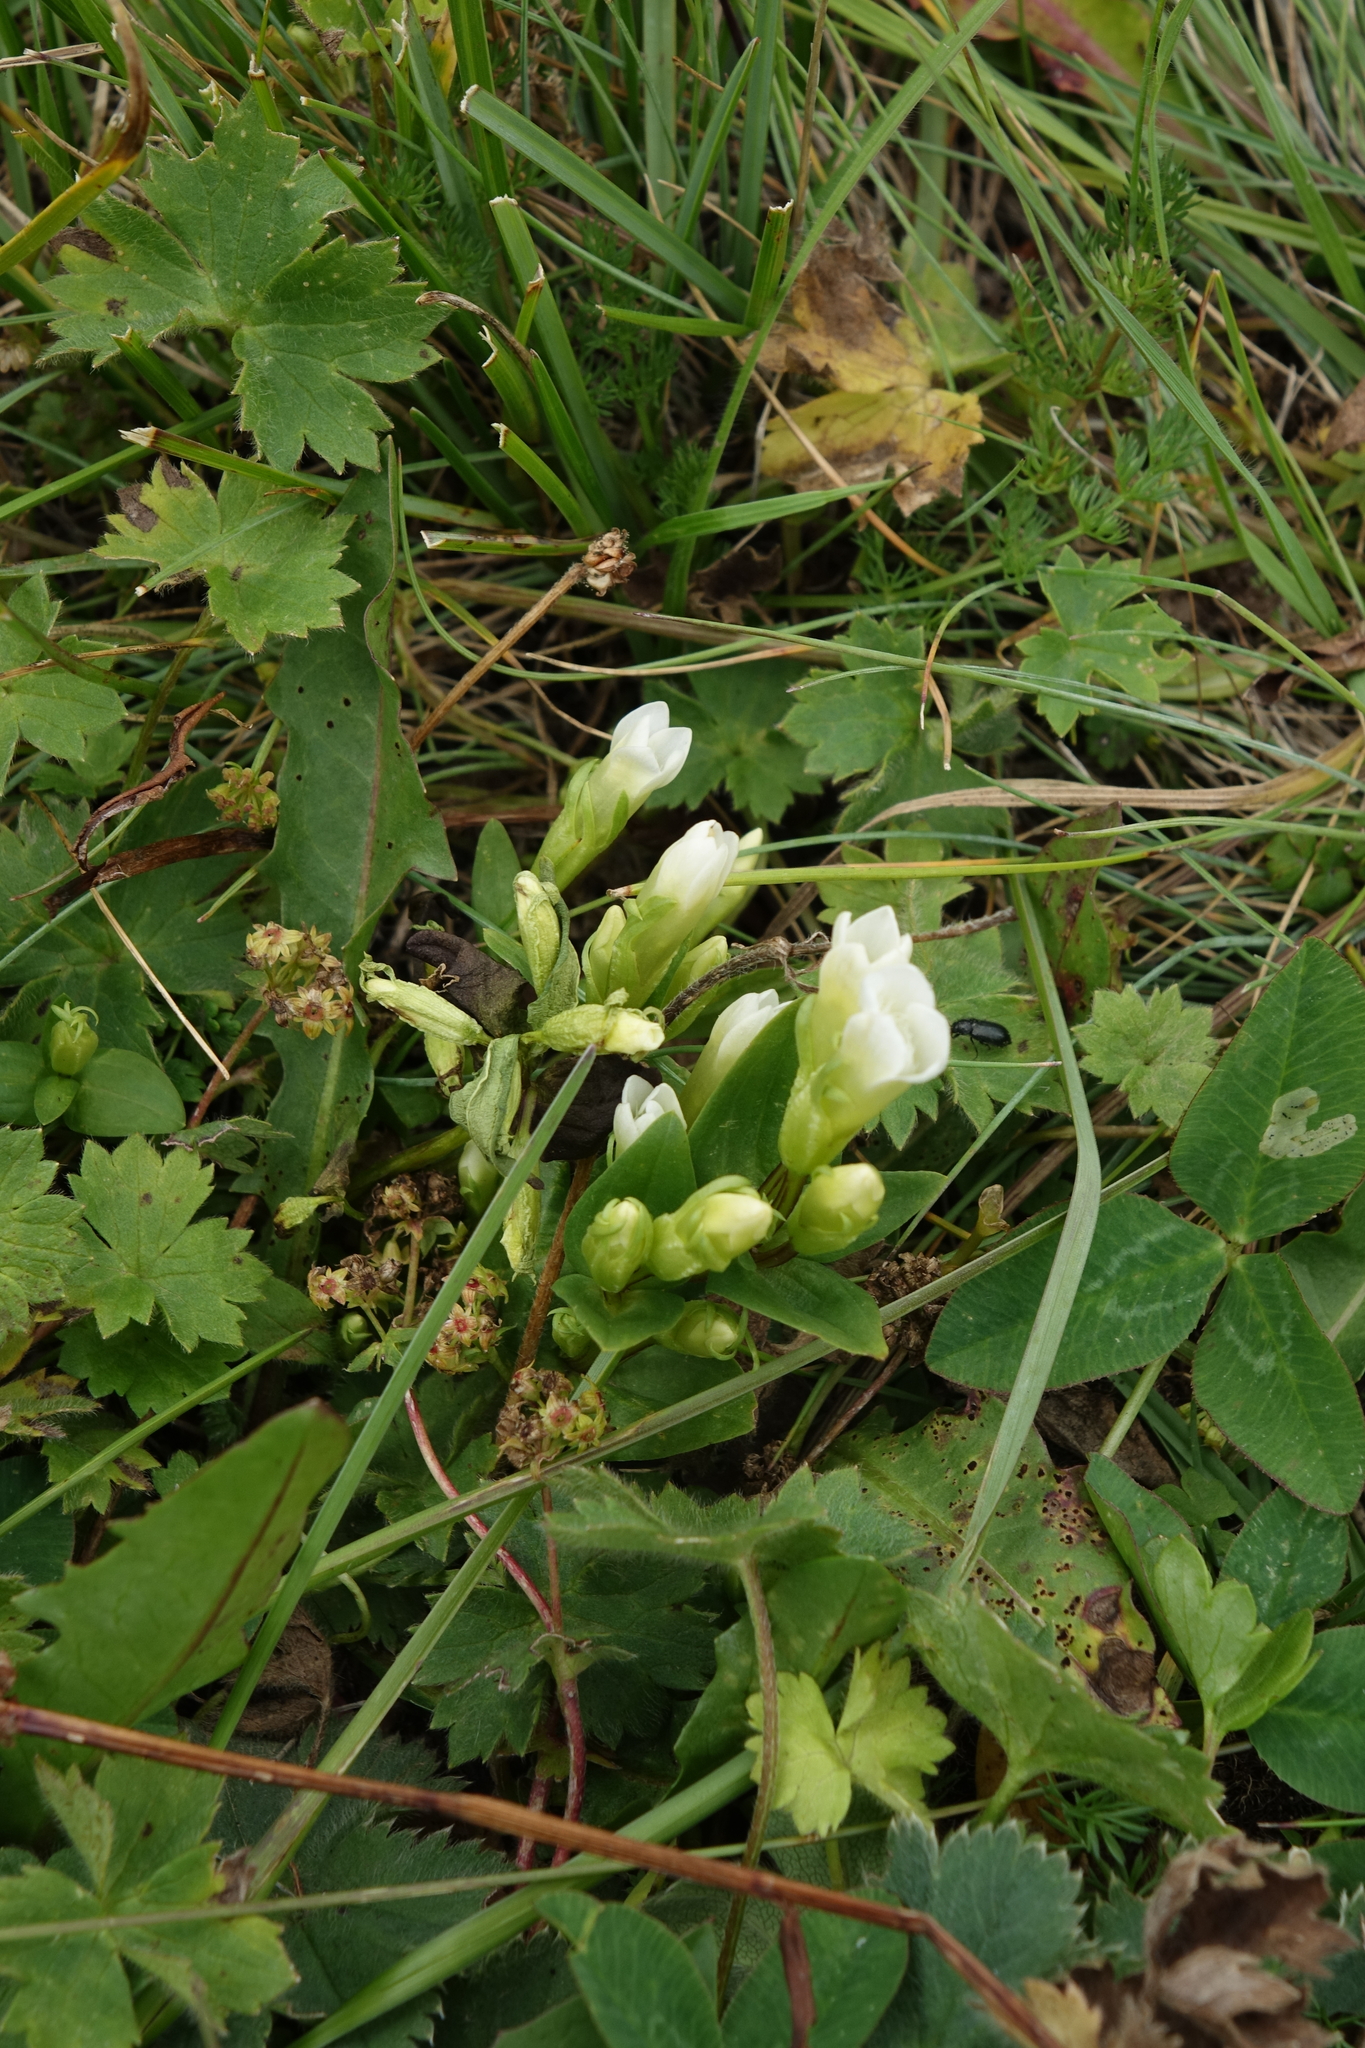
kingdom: Plantae
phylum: Tracheophyta
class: Magnoliopsida
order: Gentianales
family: Gentianaceae
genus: Gentianella
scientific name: Gentianella caucasea
